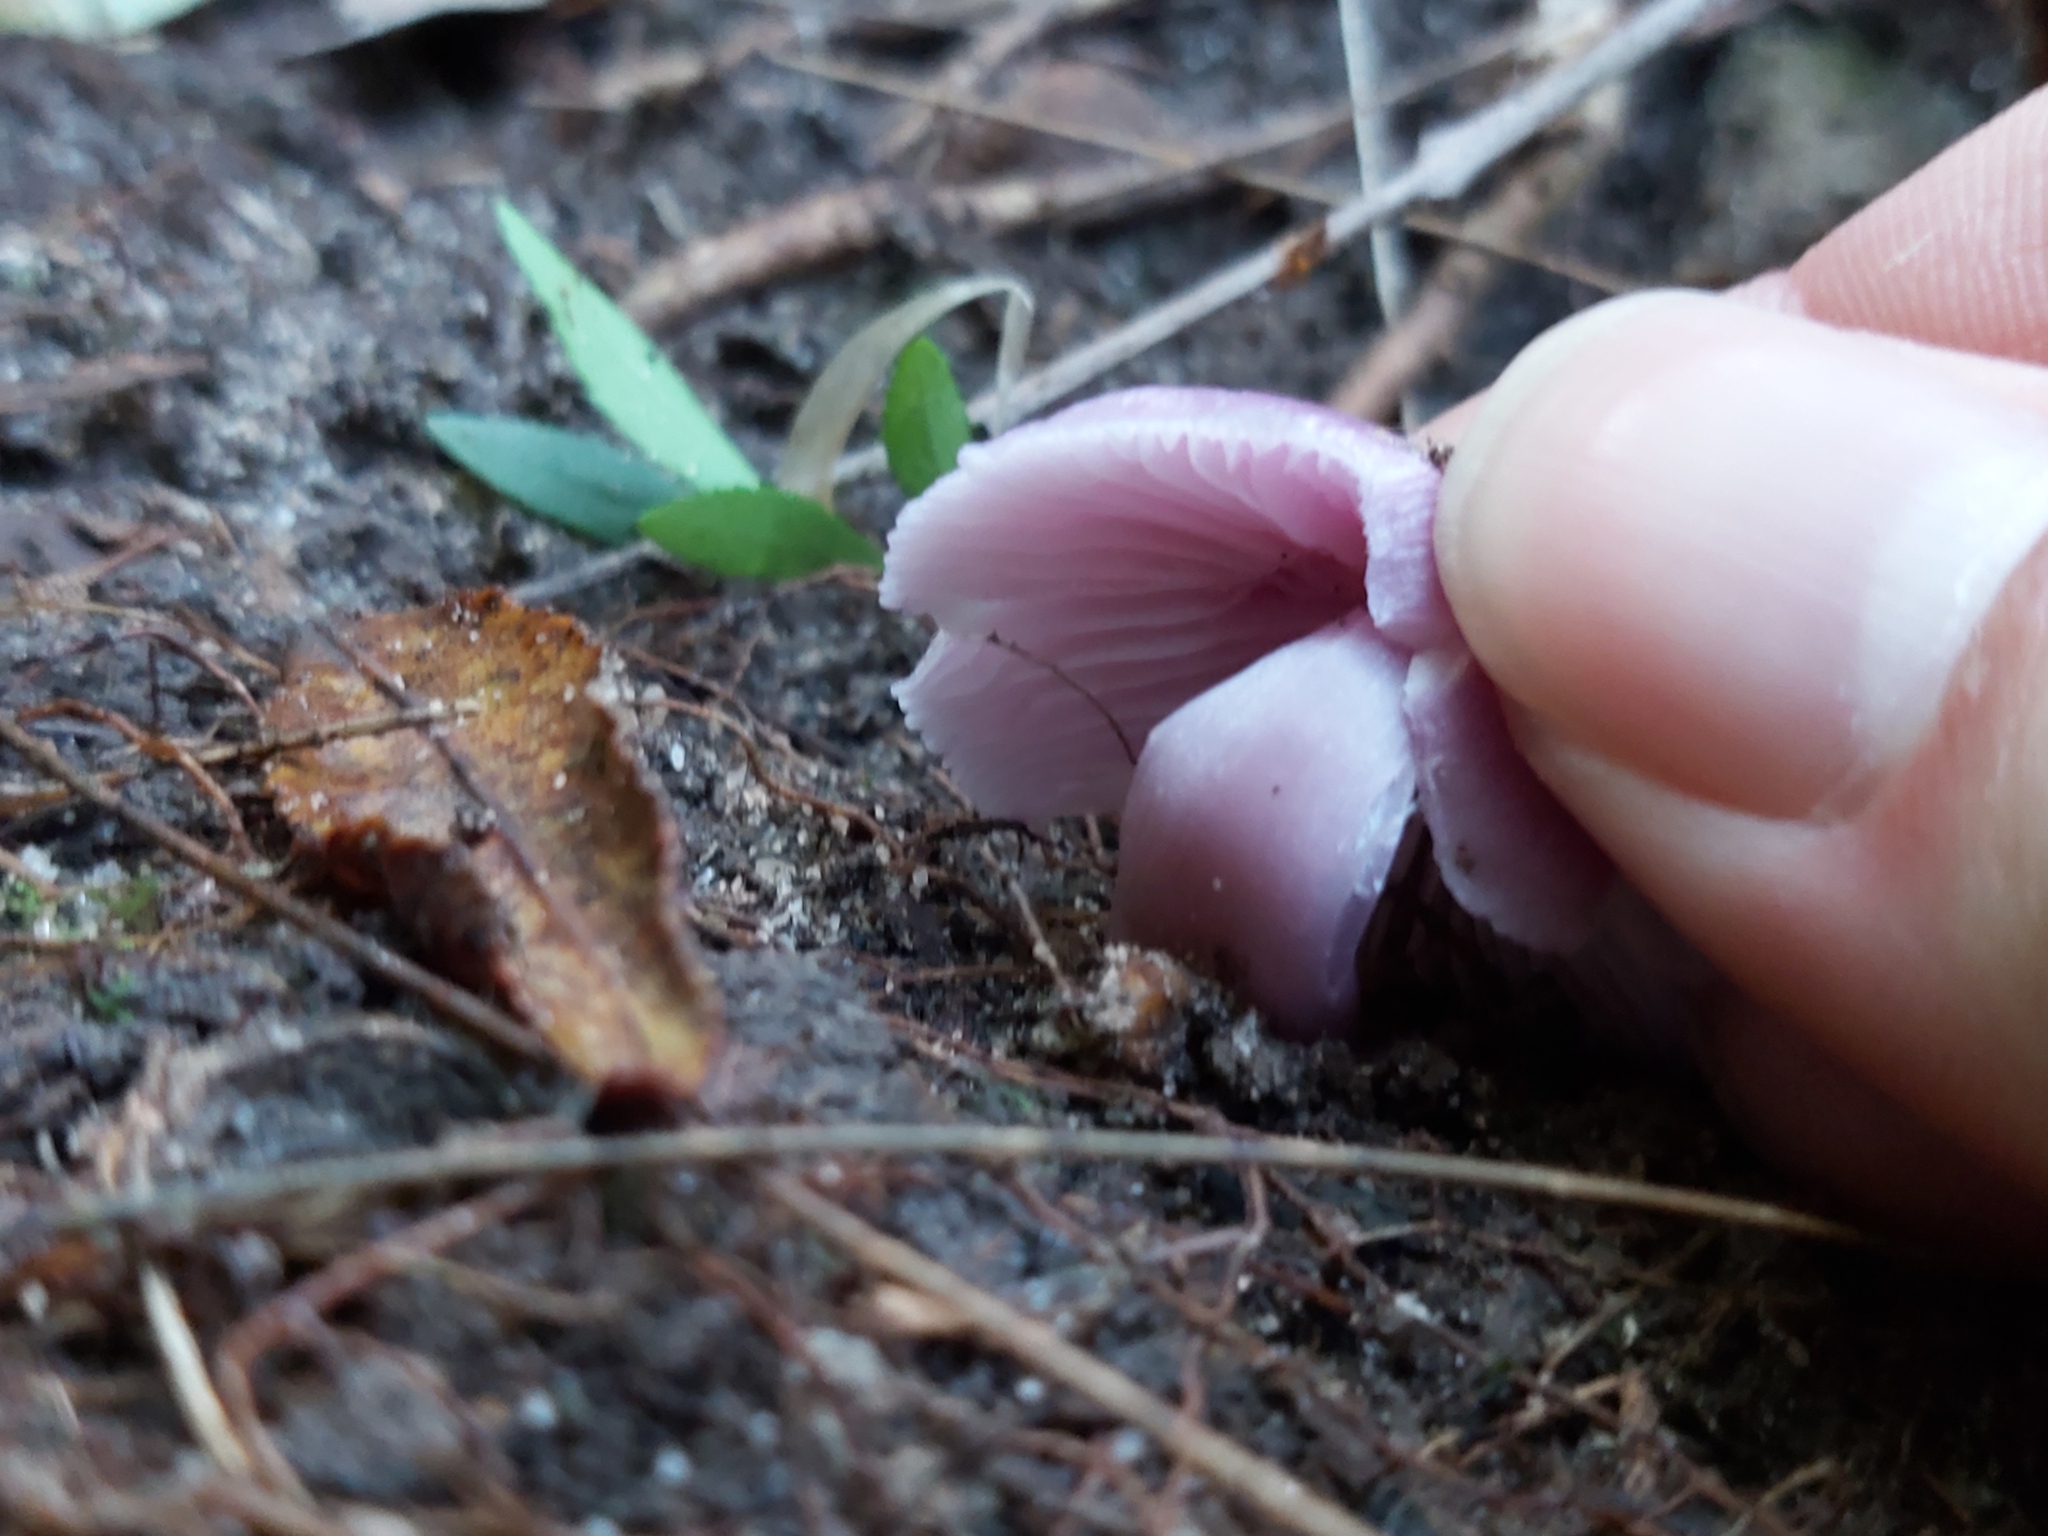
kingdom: Fungi
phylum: Basidiomycota
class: Agaricomycetes
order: Agaricales
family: Hygrophoraceae
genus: Porpolomopsis
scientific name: Porpolomopsis lewelliniae
